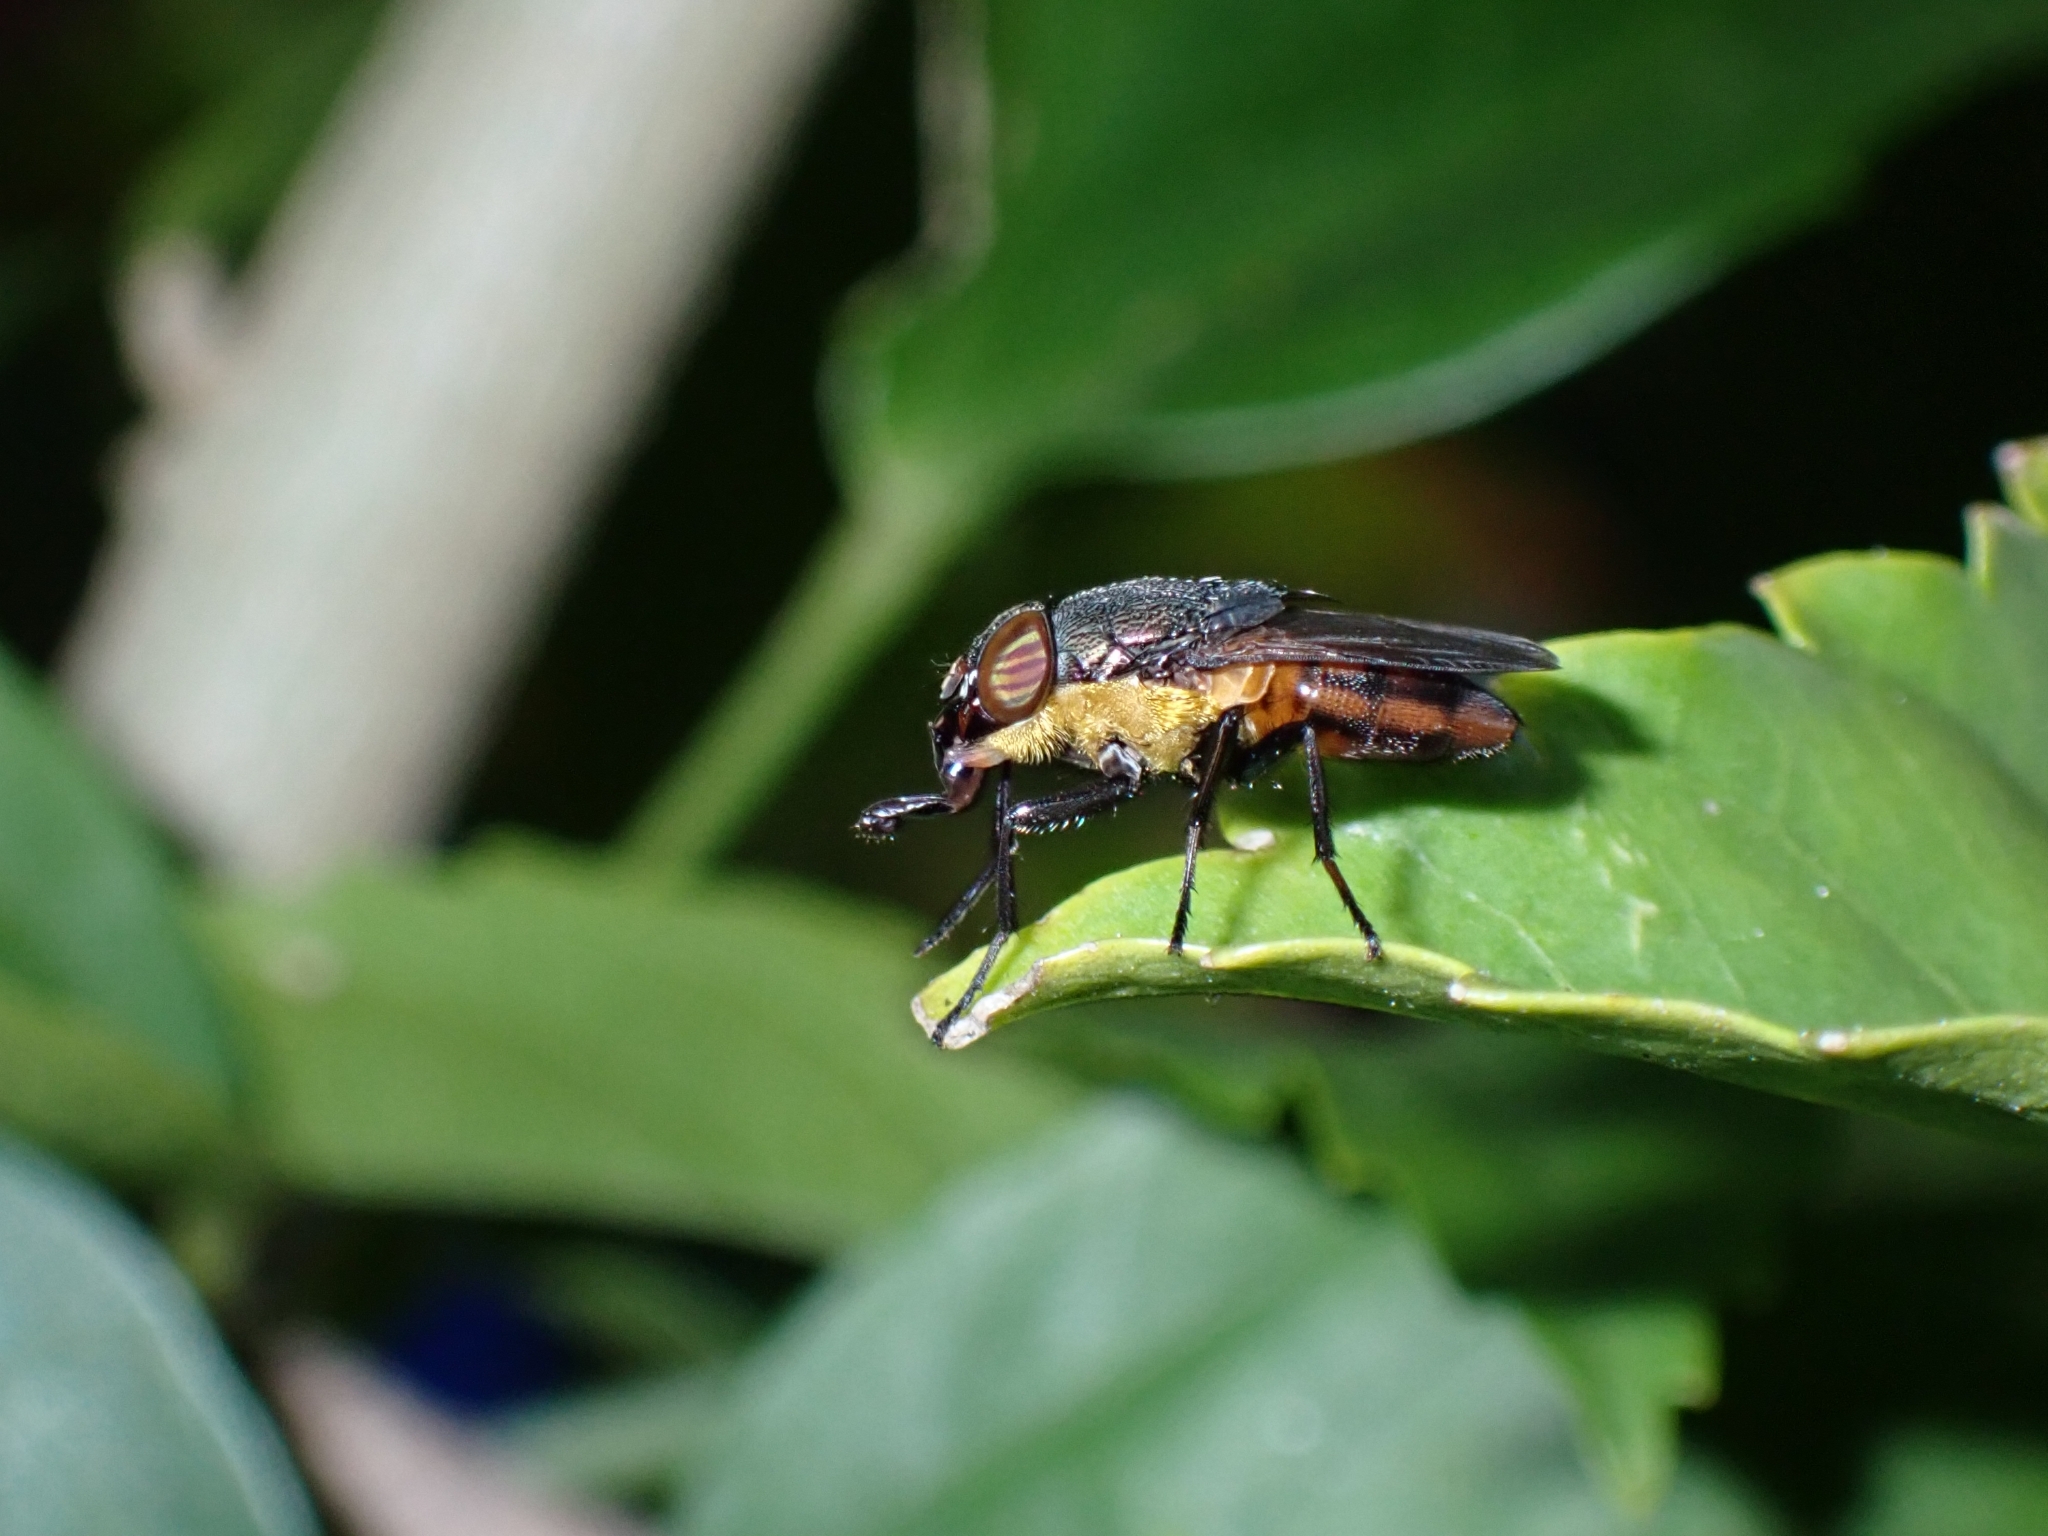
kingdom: Animalia
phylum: Arthropoda
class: Insecta
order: Diptera
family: Calliphoridae
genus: Idiellopsis
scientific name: Idiellopsis xanthogaster
